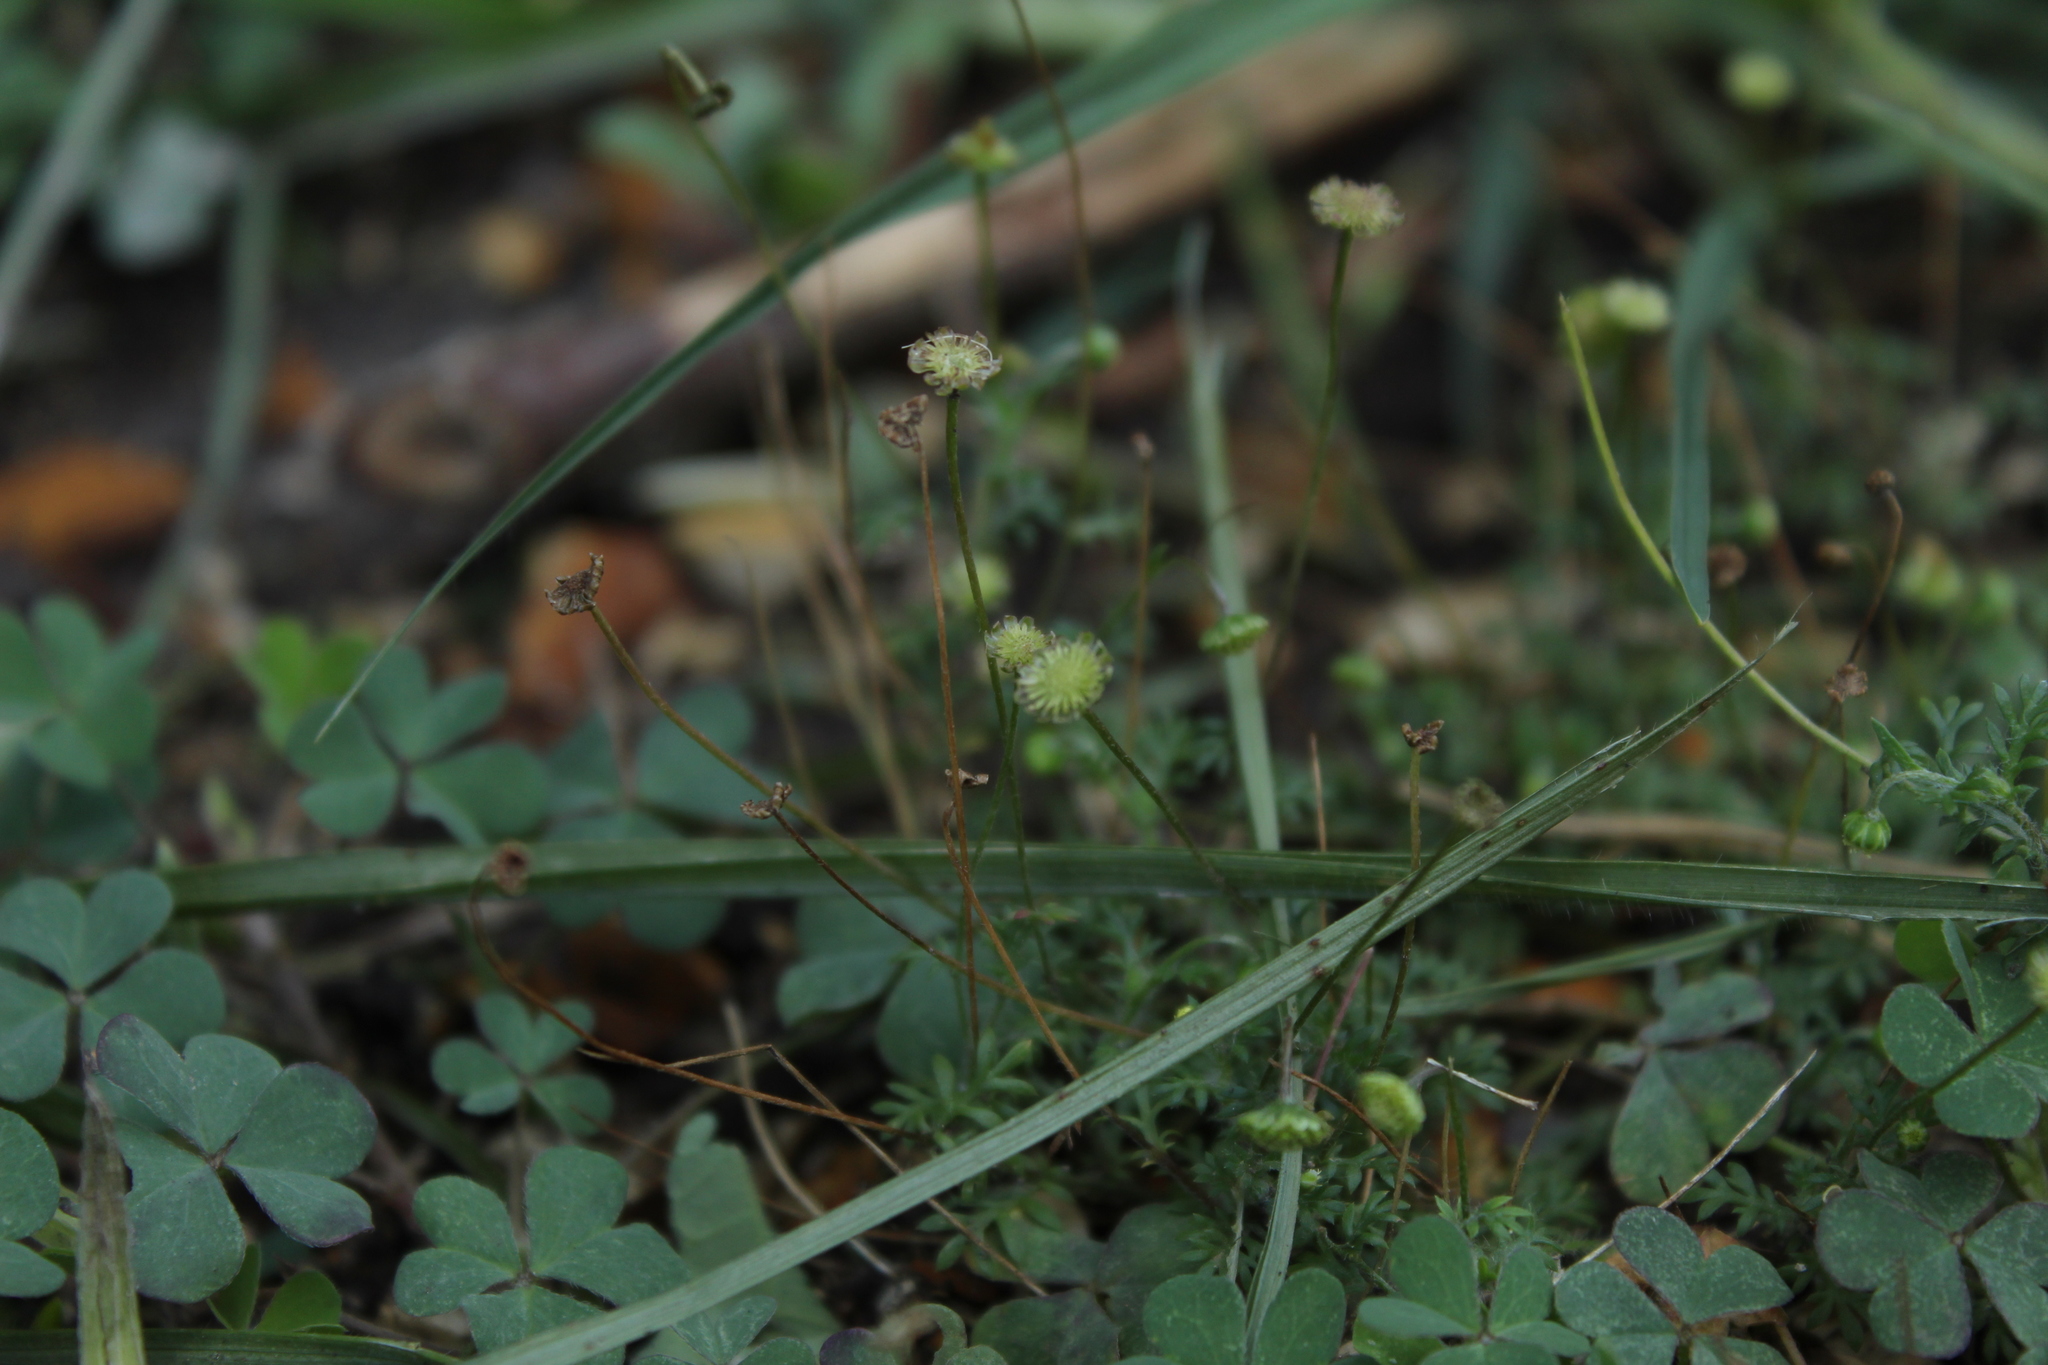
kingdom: Plantae
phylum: Tracheophyta
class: Magnoliopsida
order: Asterales
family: Asteraceae
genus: Cotula
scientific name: Cotula australis
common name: Australian waterbuttons
